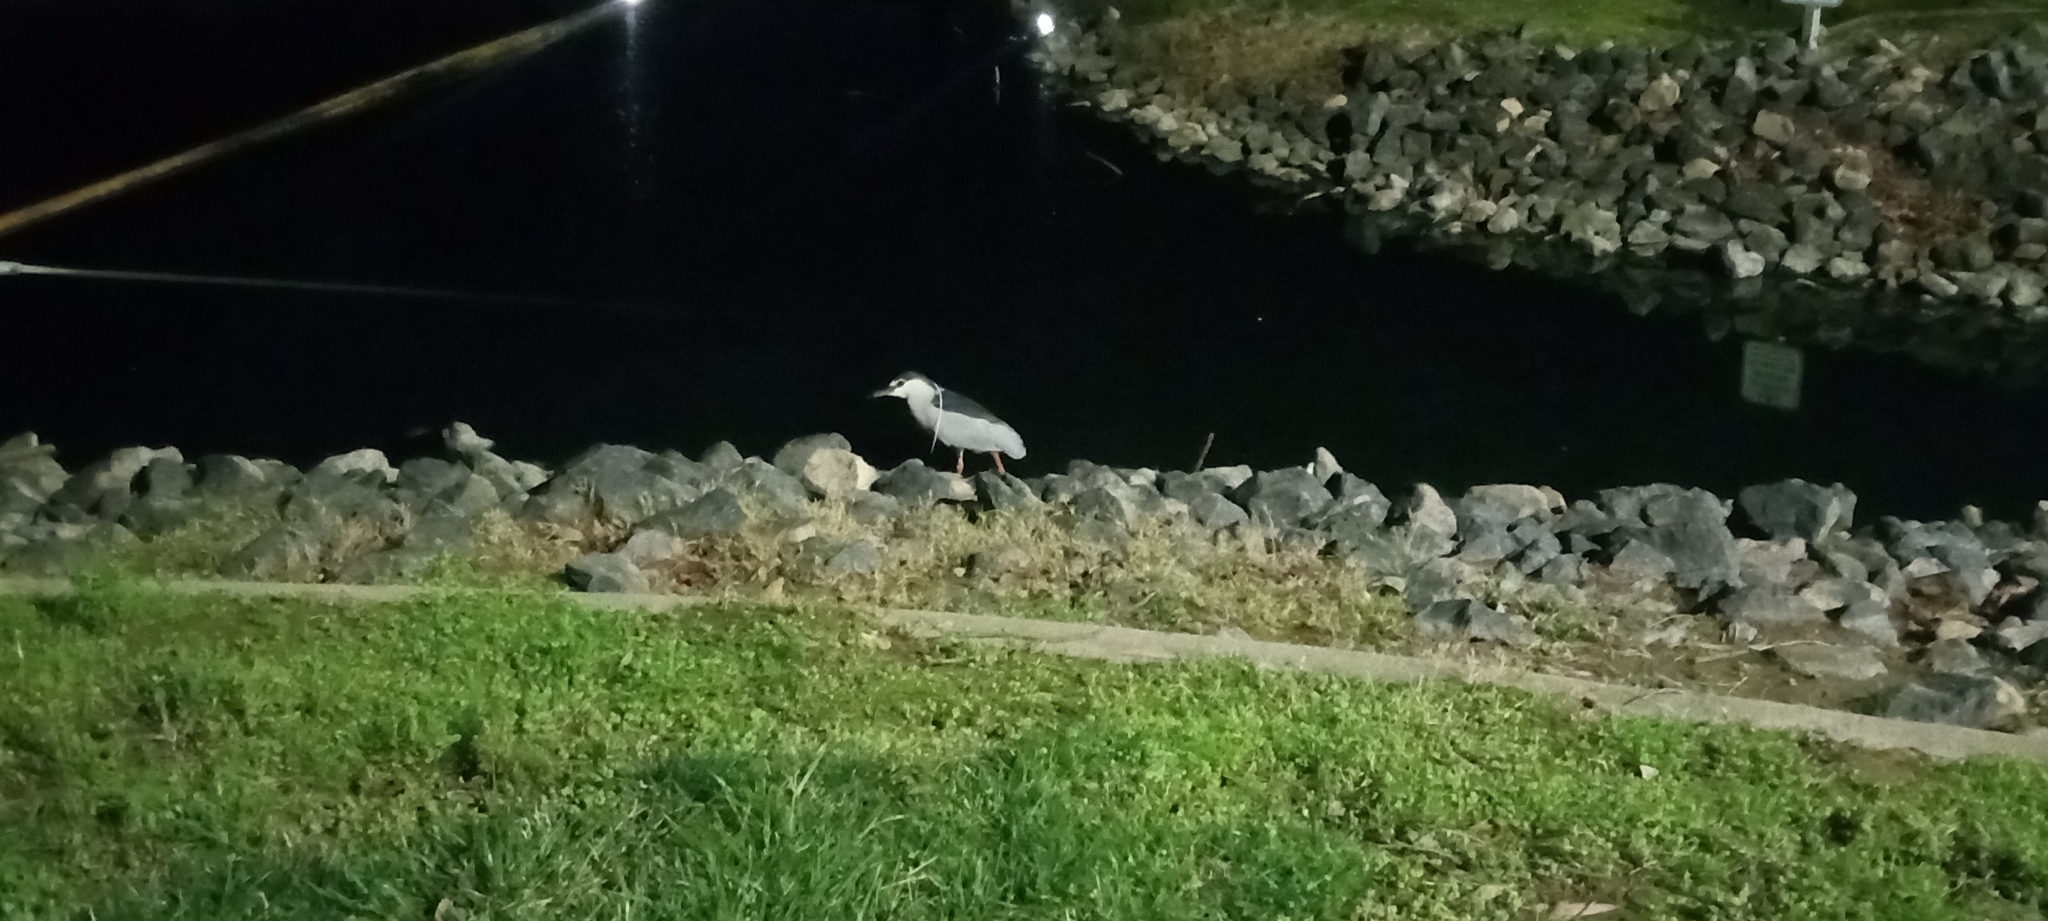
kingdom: Animalia
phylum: Chordata
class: Aves
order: Pelecaniformes
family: Ardeidae
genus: Nycticorax
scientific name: Nycticorax nycticorax
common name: Black-crowned night heron
